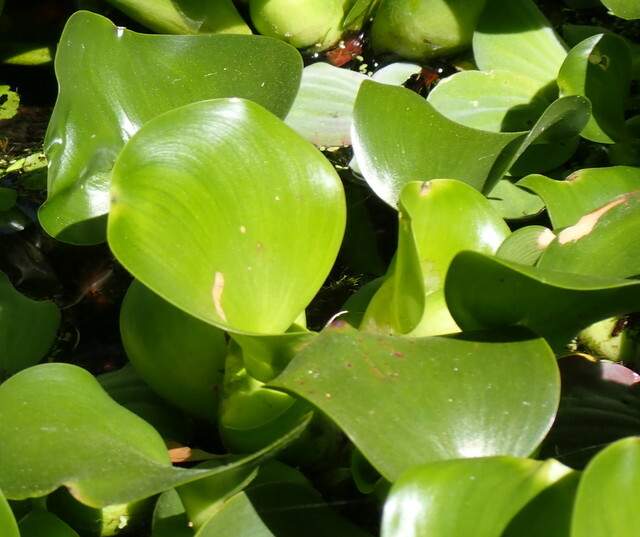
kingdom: Plantae
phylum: Tracheophyta
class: Liliopsida
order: Commelinales
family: Pontederiaceae
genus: Pontederia
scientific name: Pontederia crassipes
